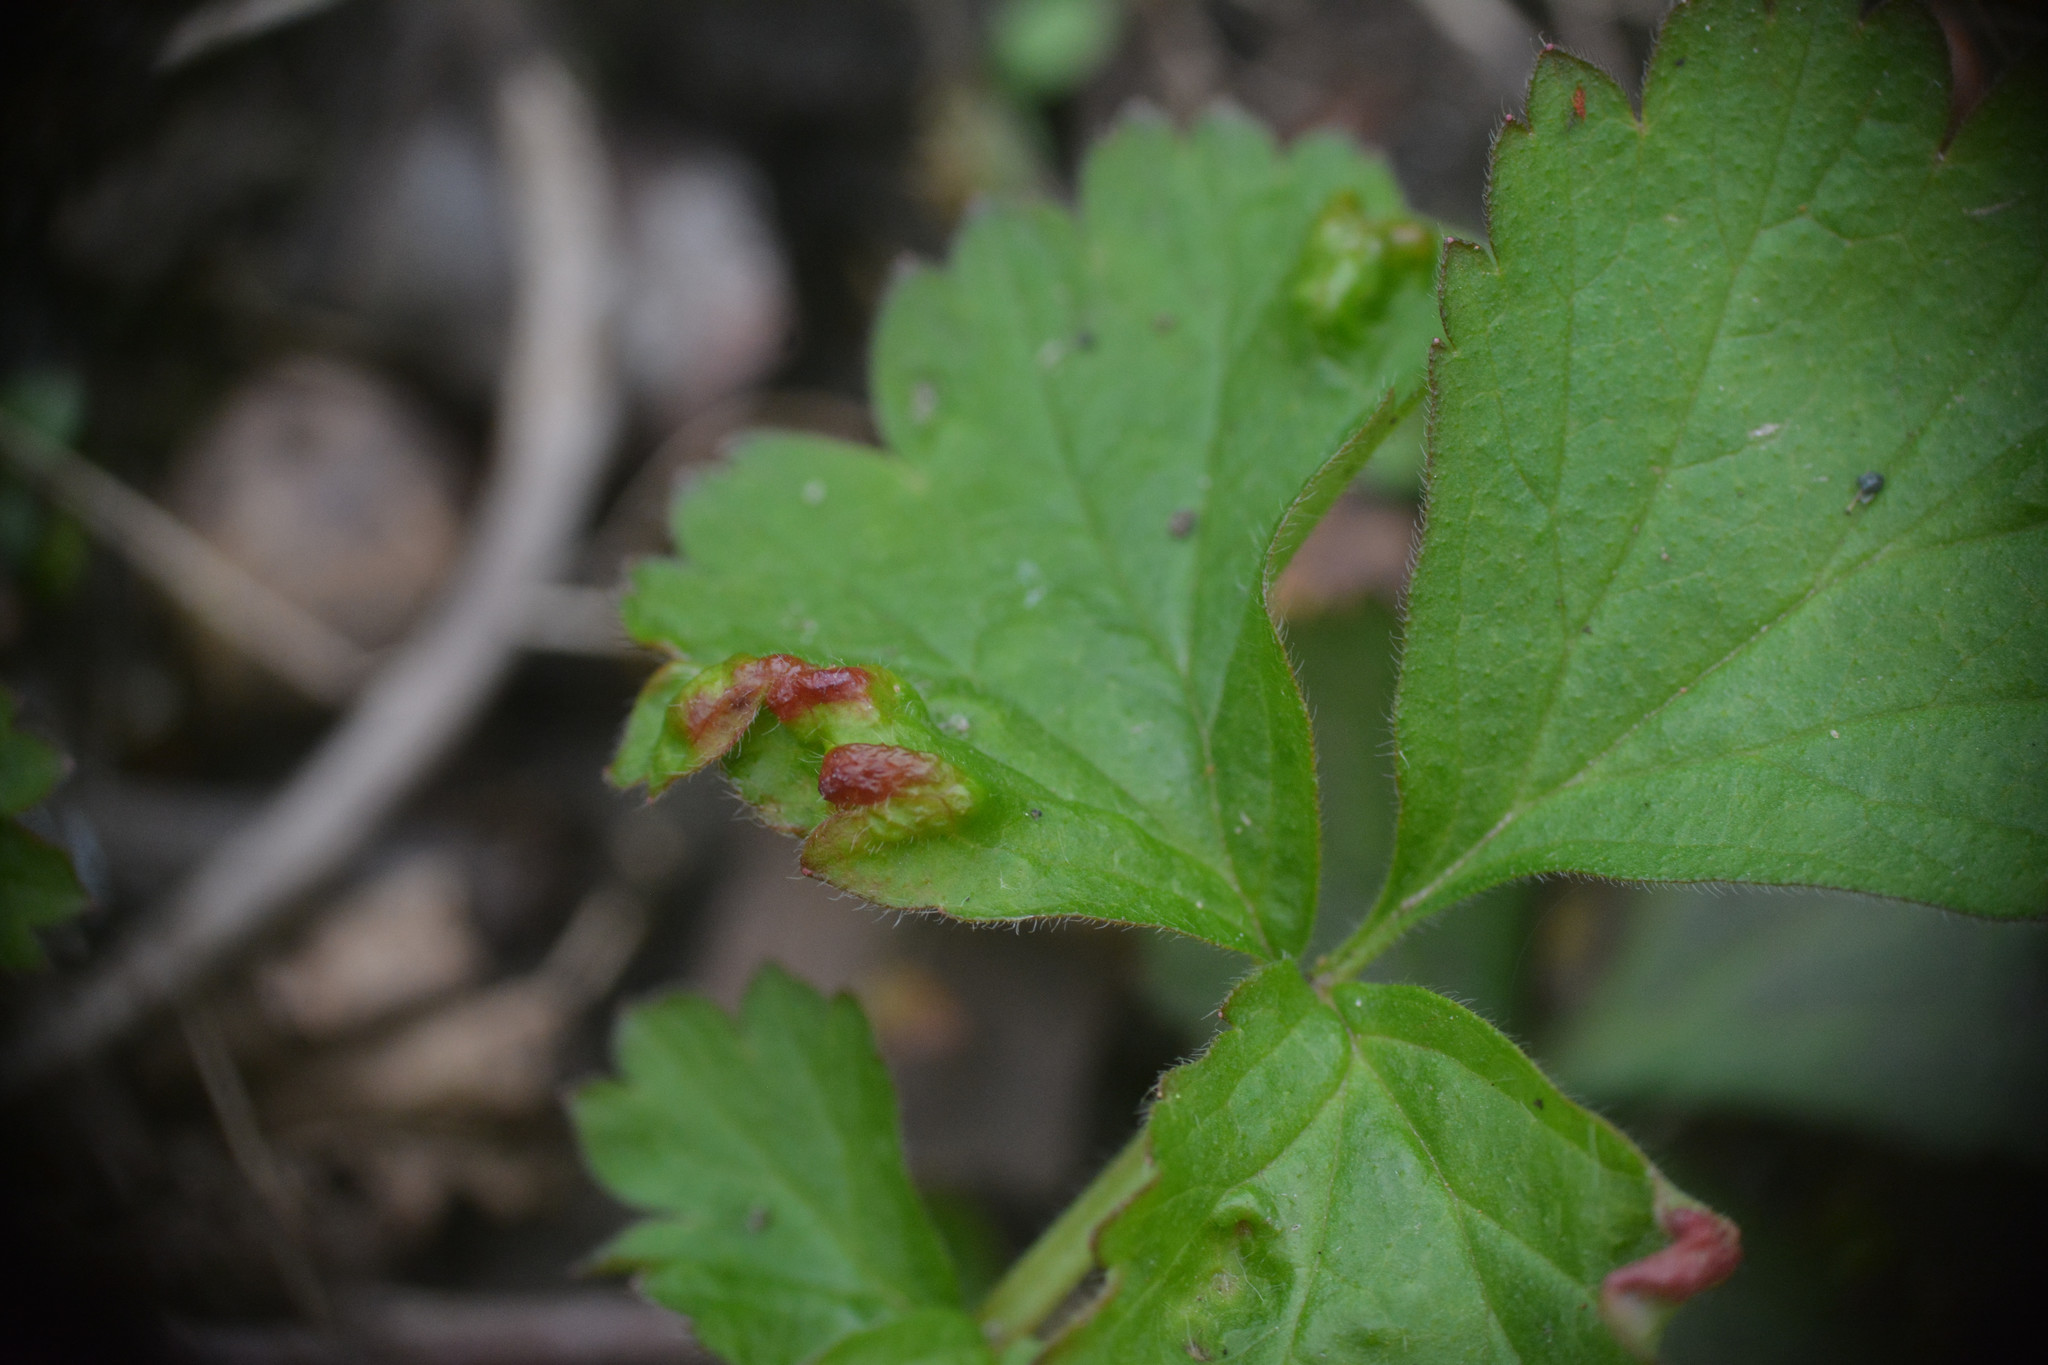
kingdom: Animalia
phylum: Arthropoda
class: Arachnida
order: Trombidiformes
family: Eriophyidae
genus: Cecidophyes
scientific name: Cecidophyes nudus
